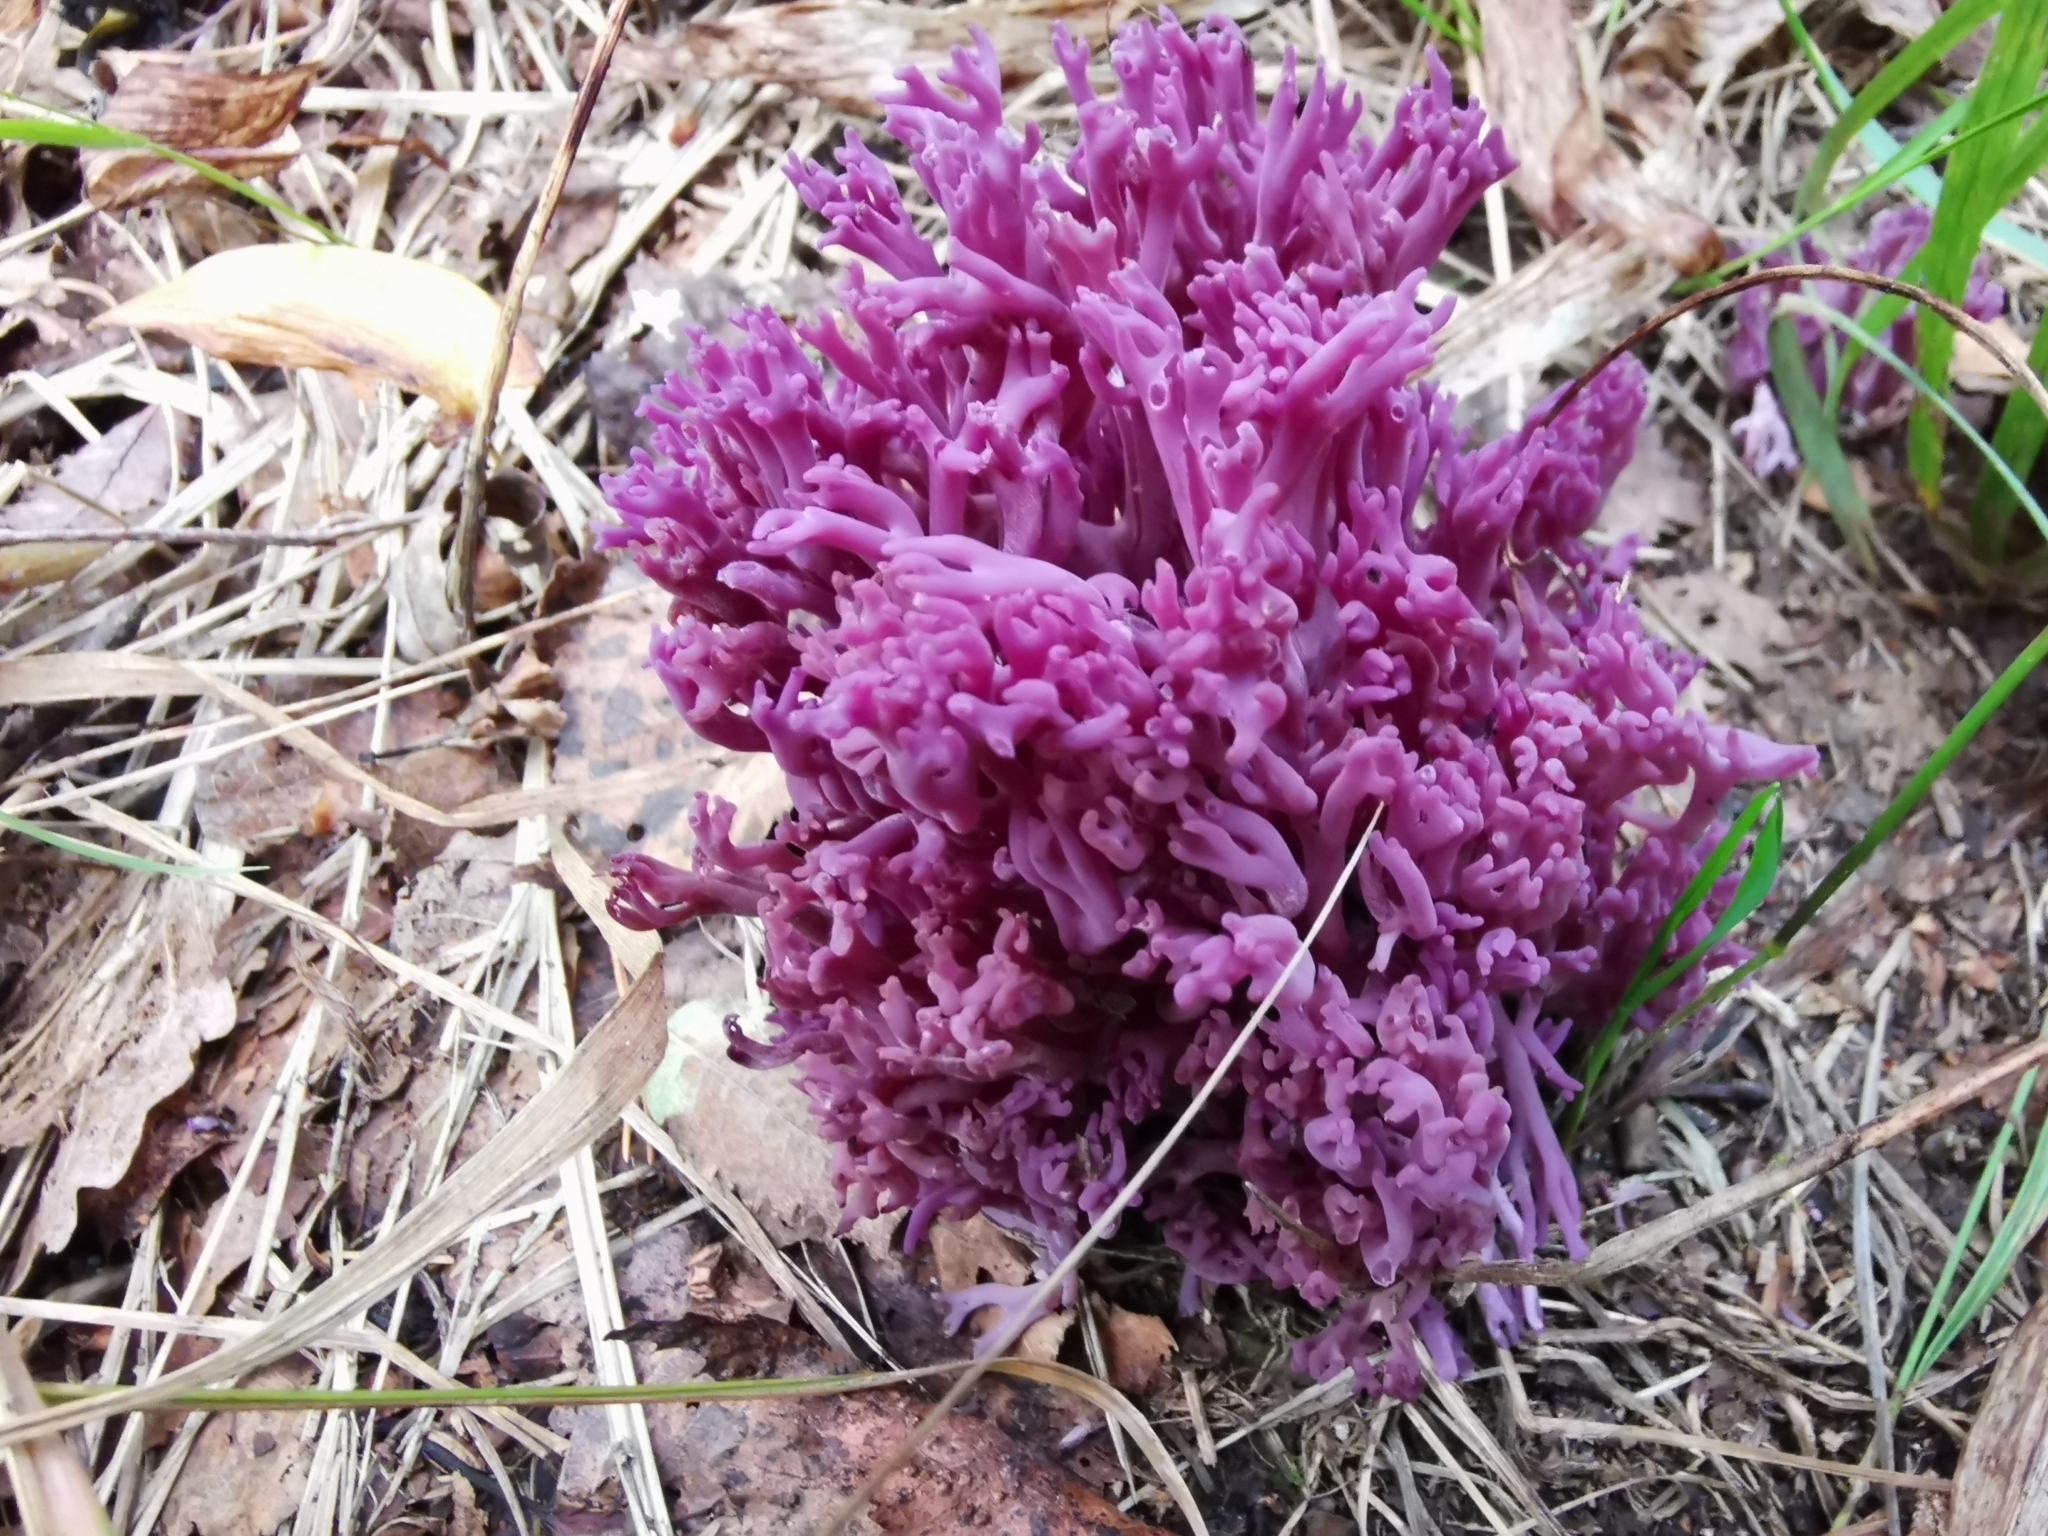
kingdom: Fungi
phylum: Basidiomycota
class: Agaricomycetes
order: Agaricales
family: Clavariaceae
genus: Clavaria
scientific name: Clavaria zollingeri
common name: Violet coral
